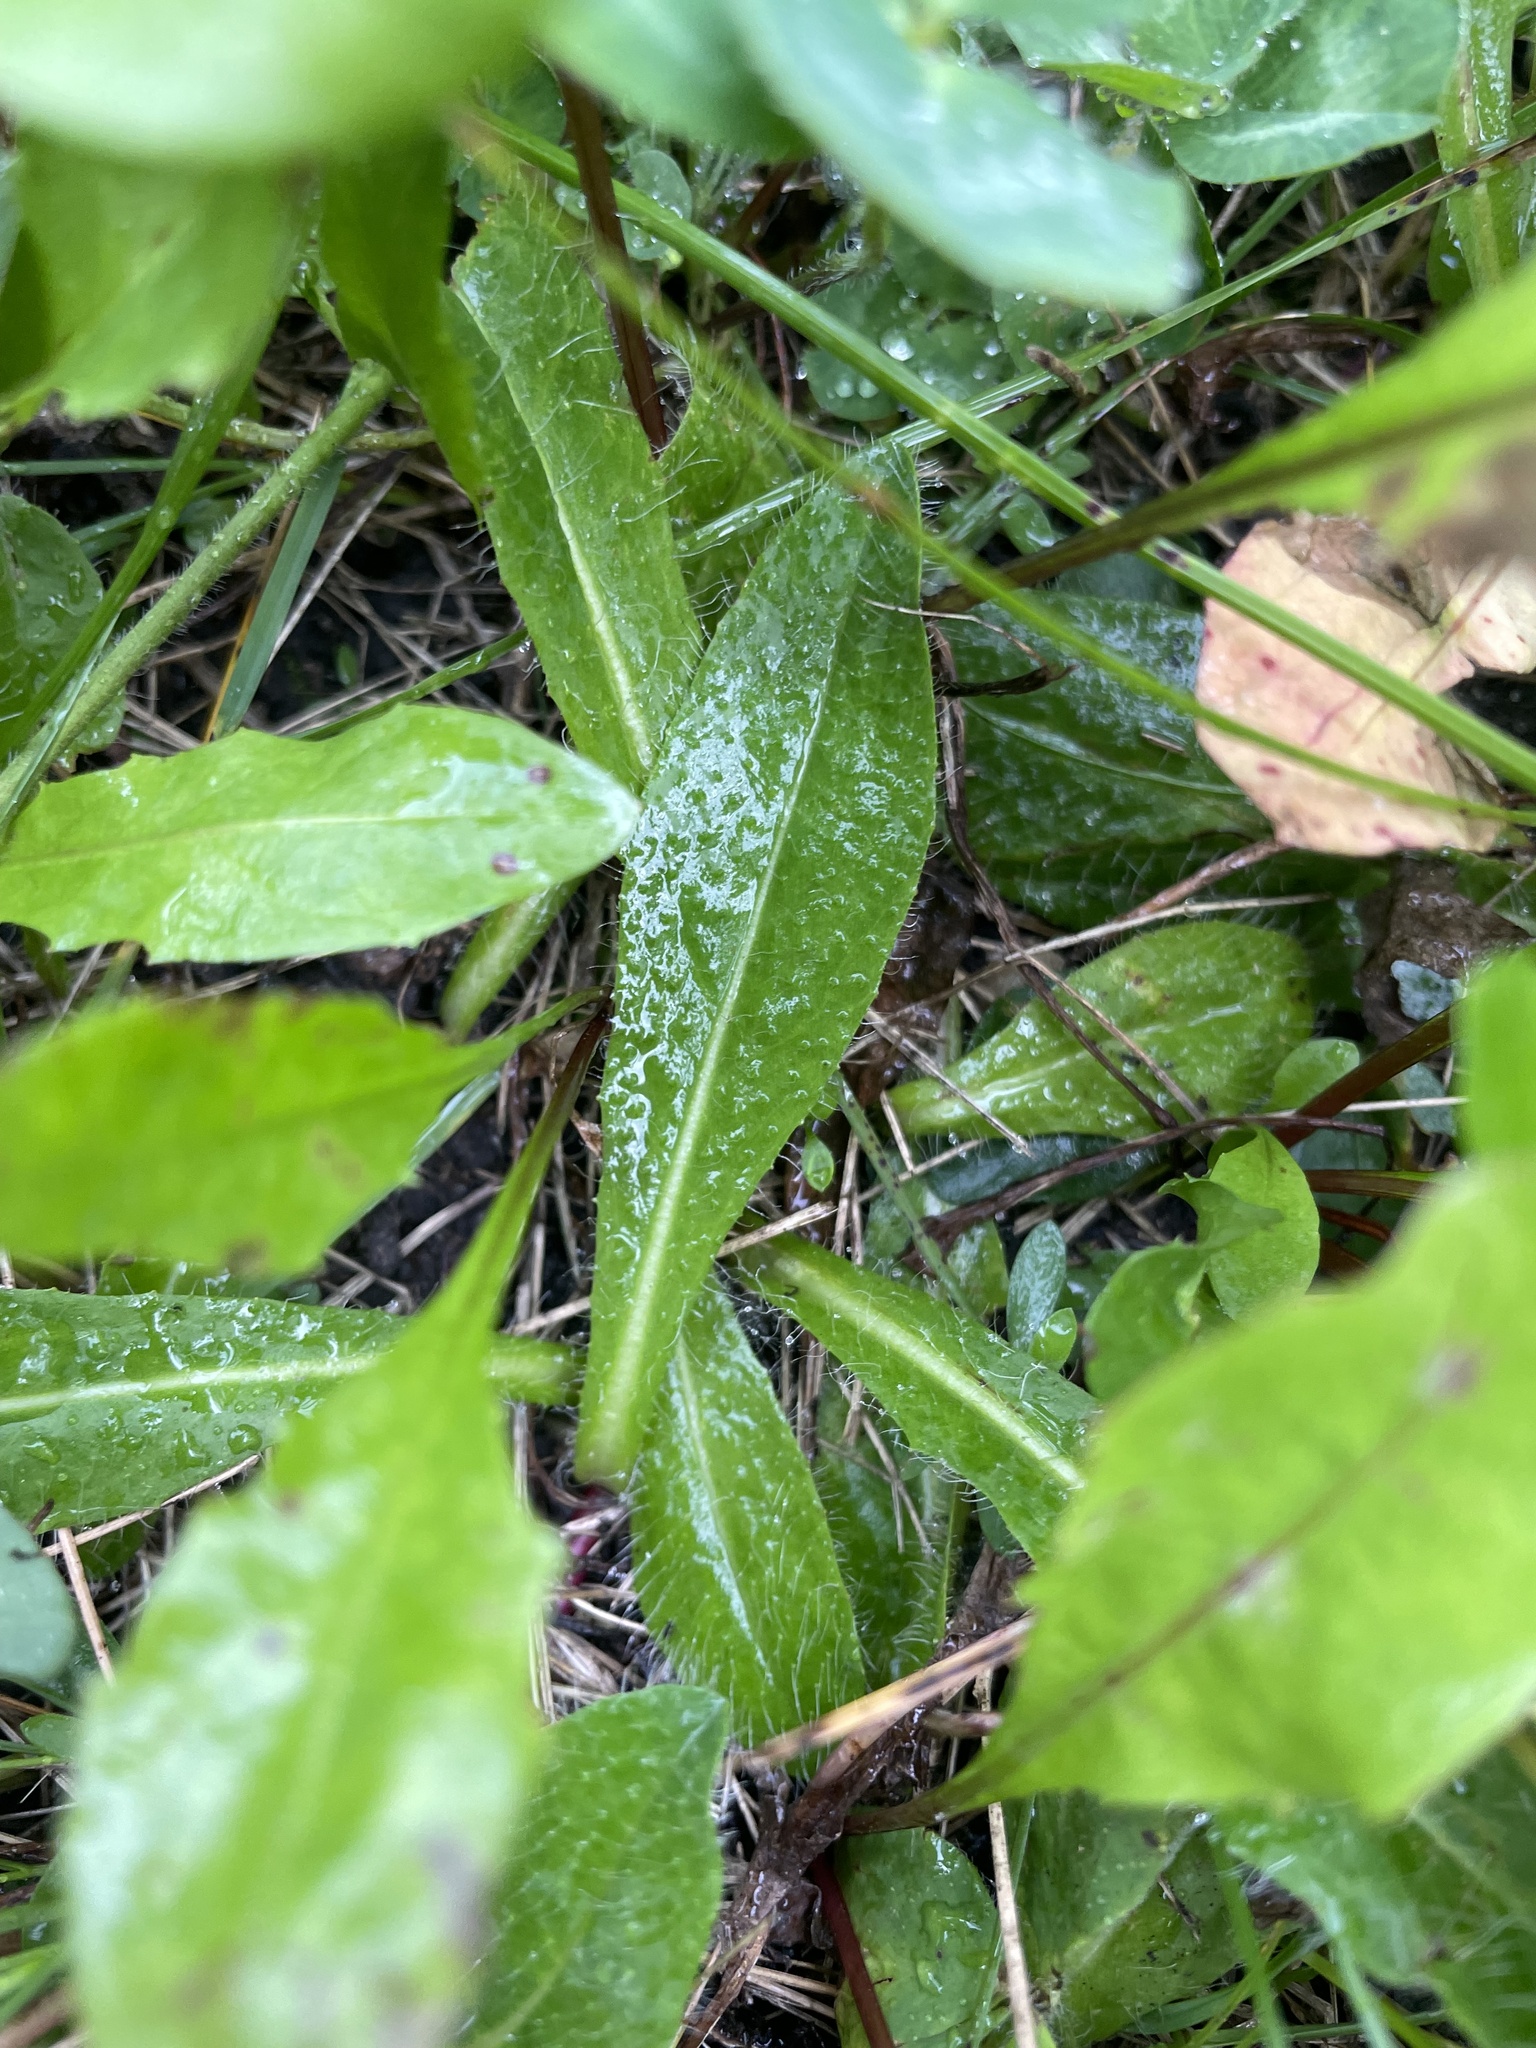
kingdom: Plantae
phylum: Tracheophyta
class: Magnoliopsida
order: Asterales
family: Asteraceae
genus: Pilosella
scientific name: Pilosella aurantiaca
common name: Fox-and-cubs
